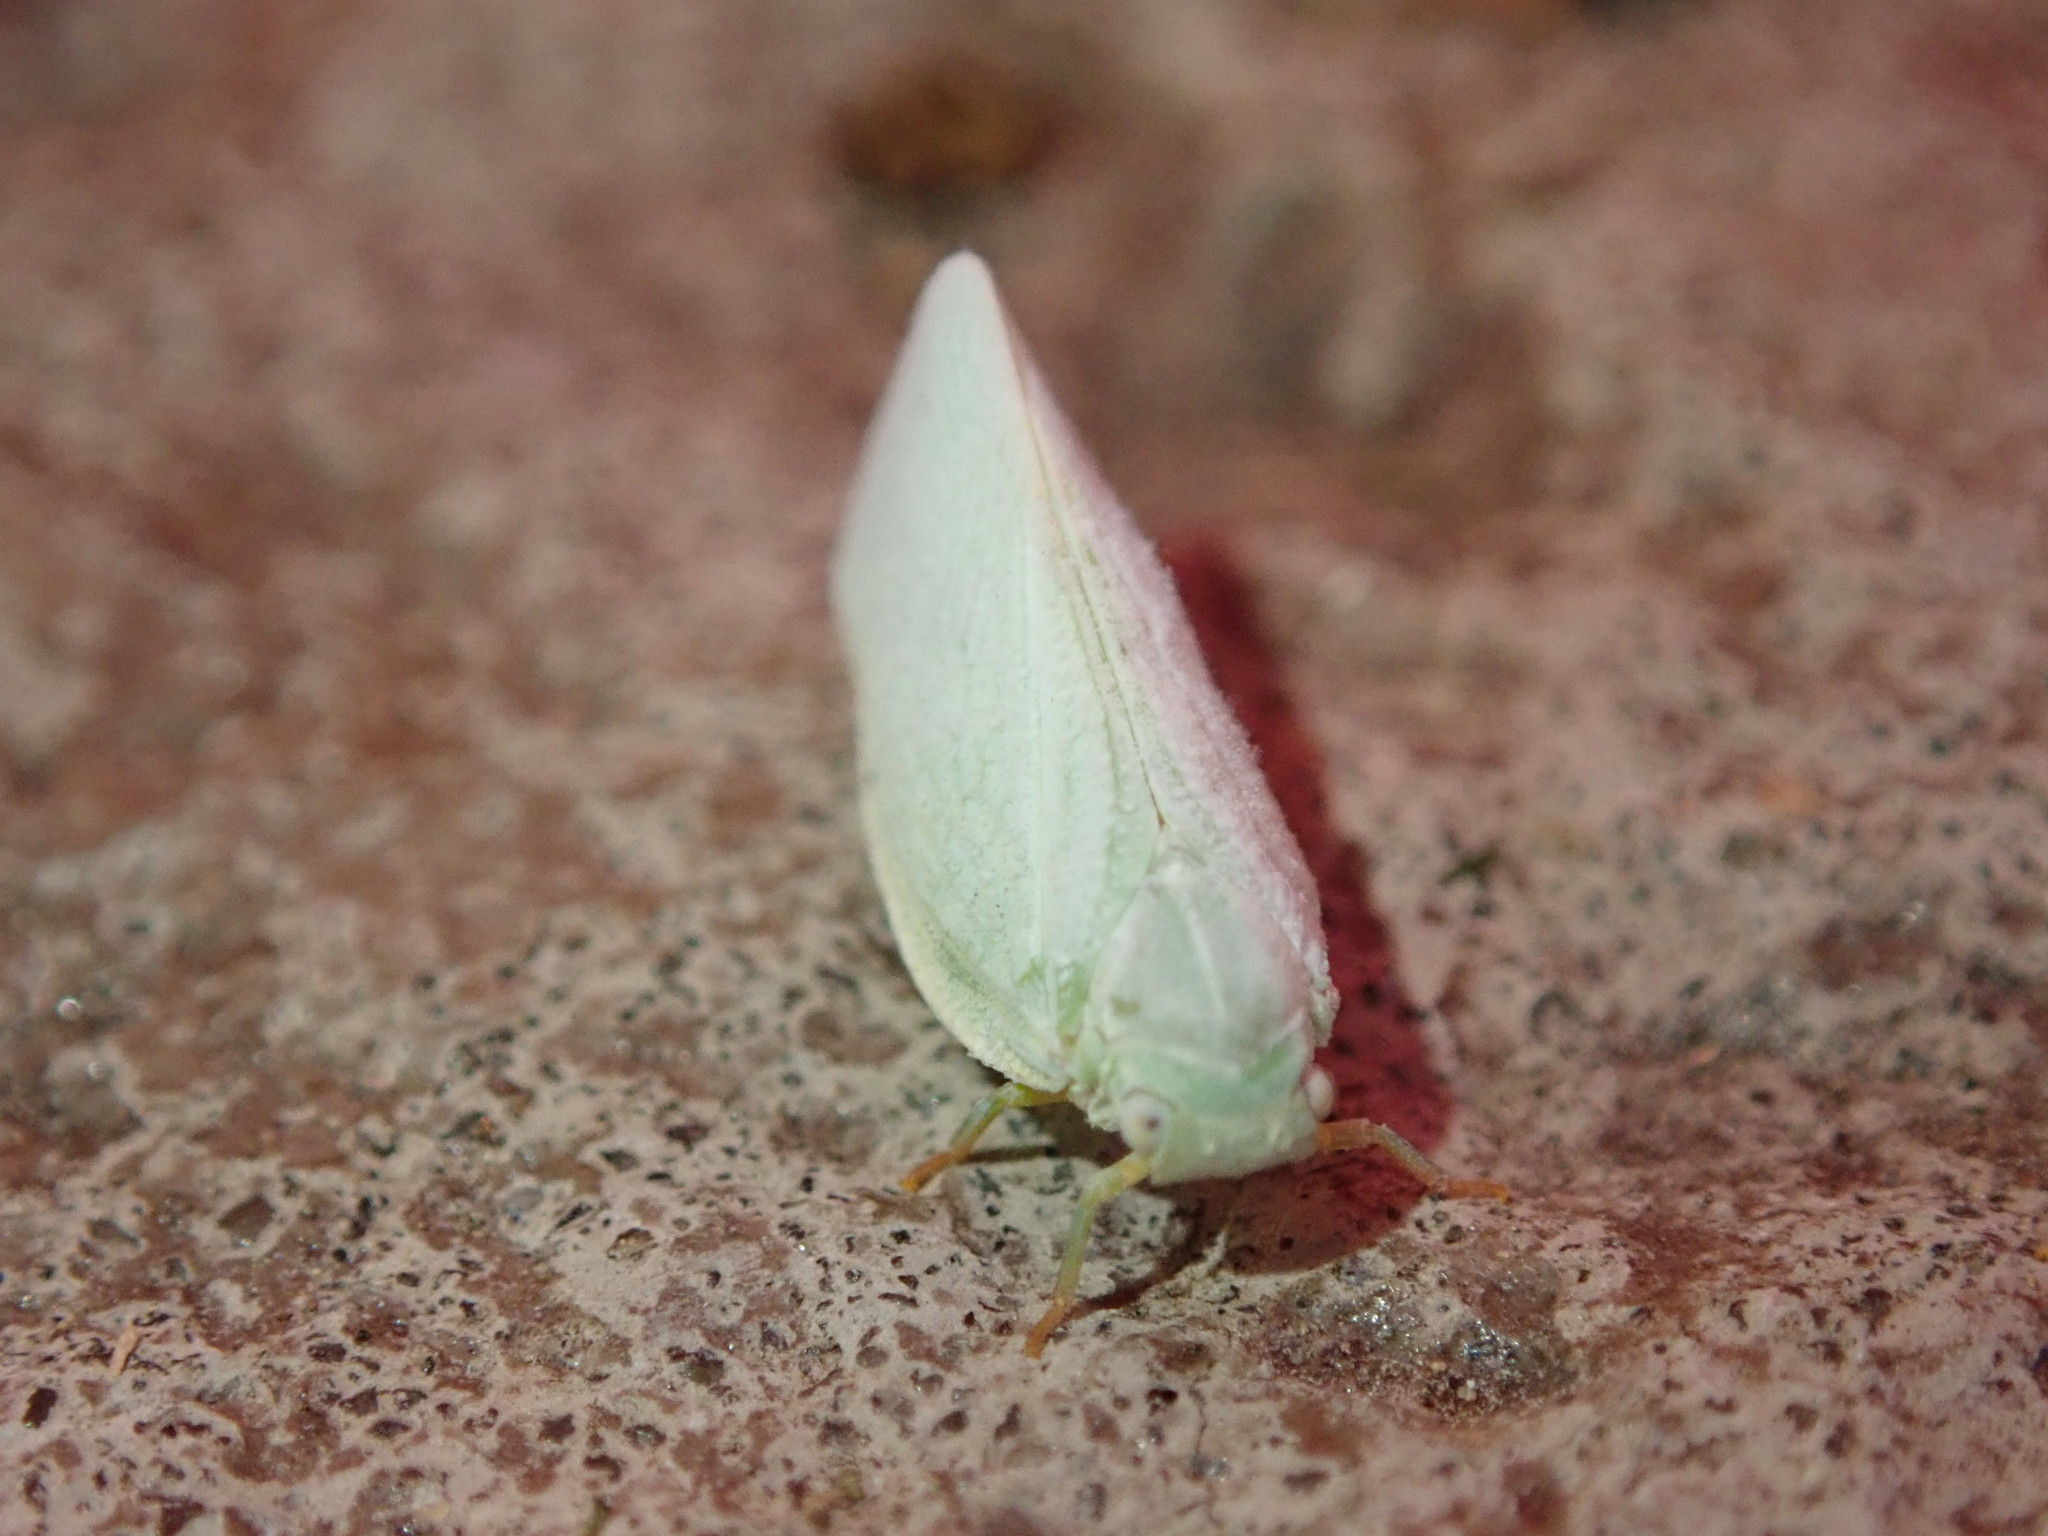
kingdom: Animalia
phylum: Arthropoda
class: Insecta
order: Hemiptera
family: Flatidae
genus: Flatormenis
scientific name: Flatormenis proxima
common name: Northern flatid planthopper
